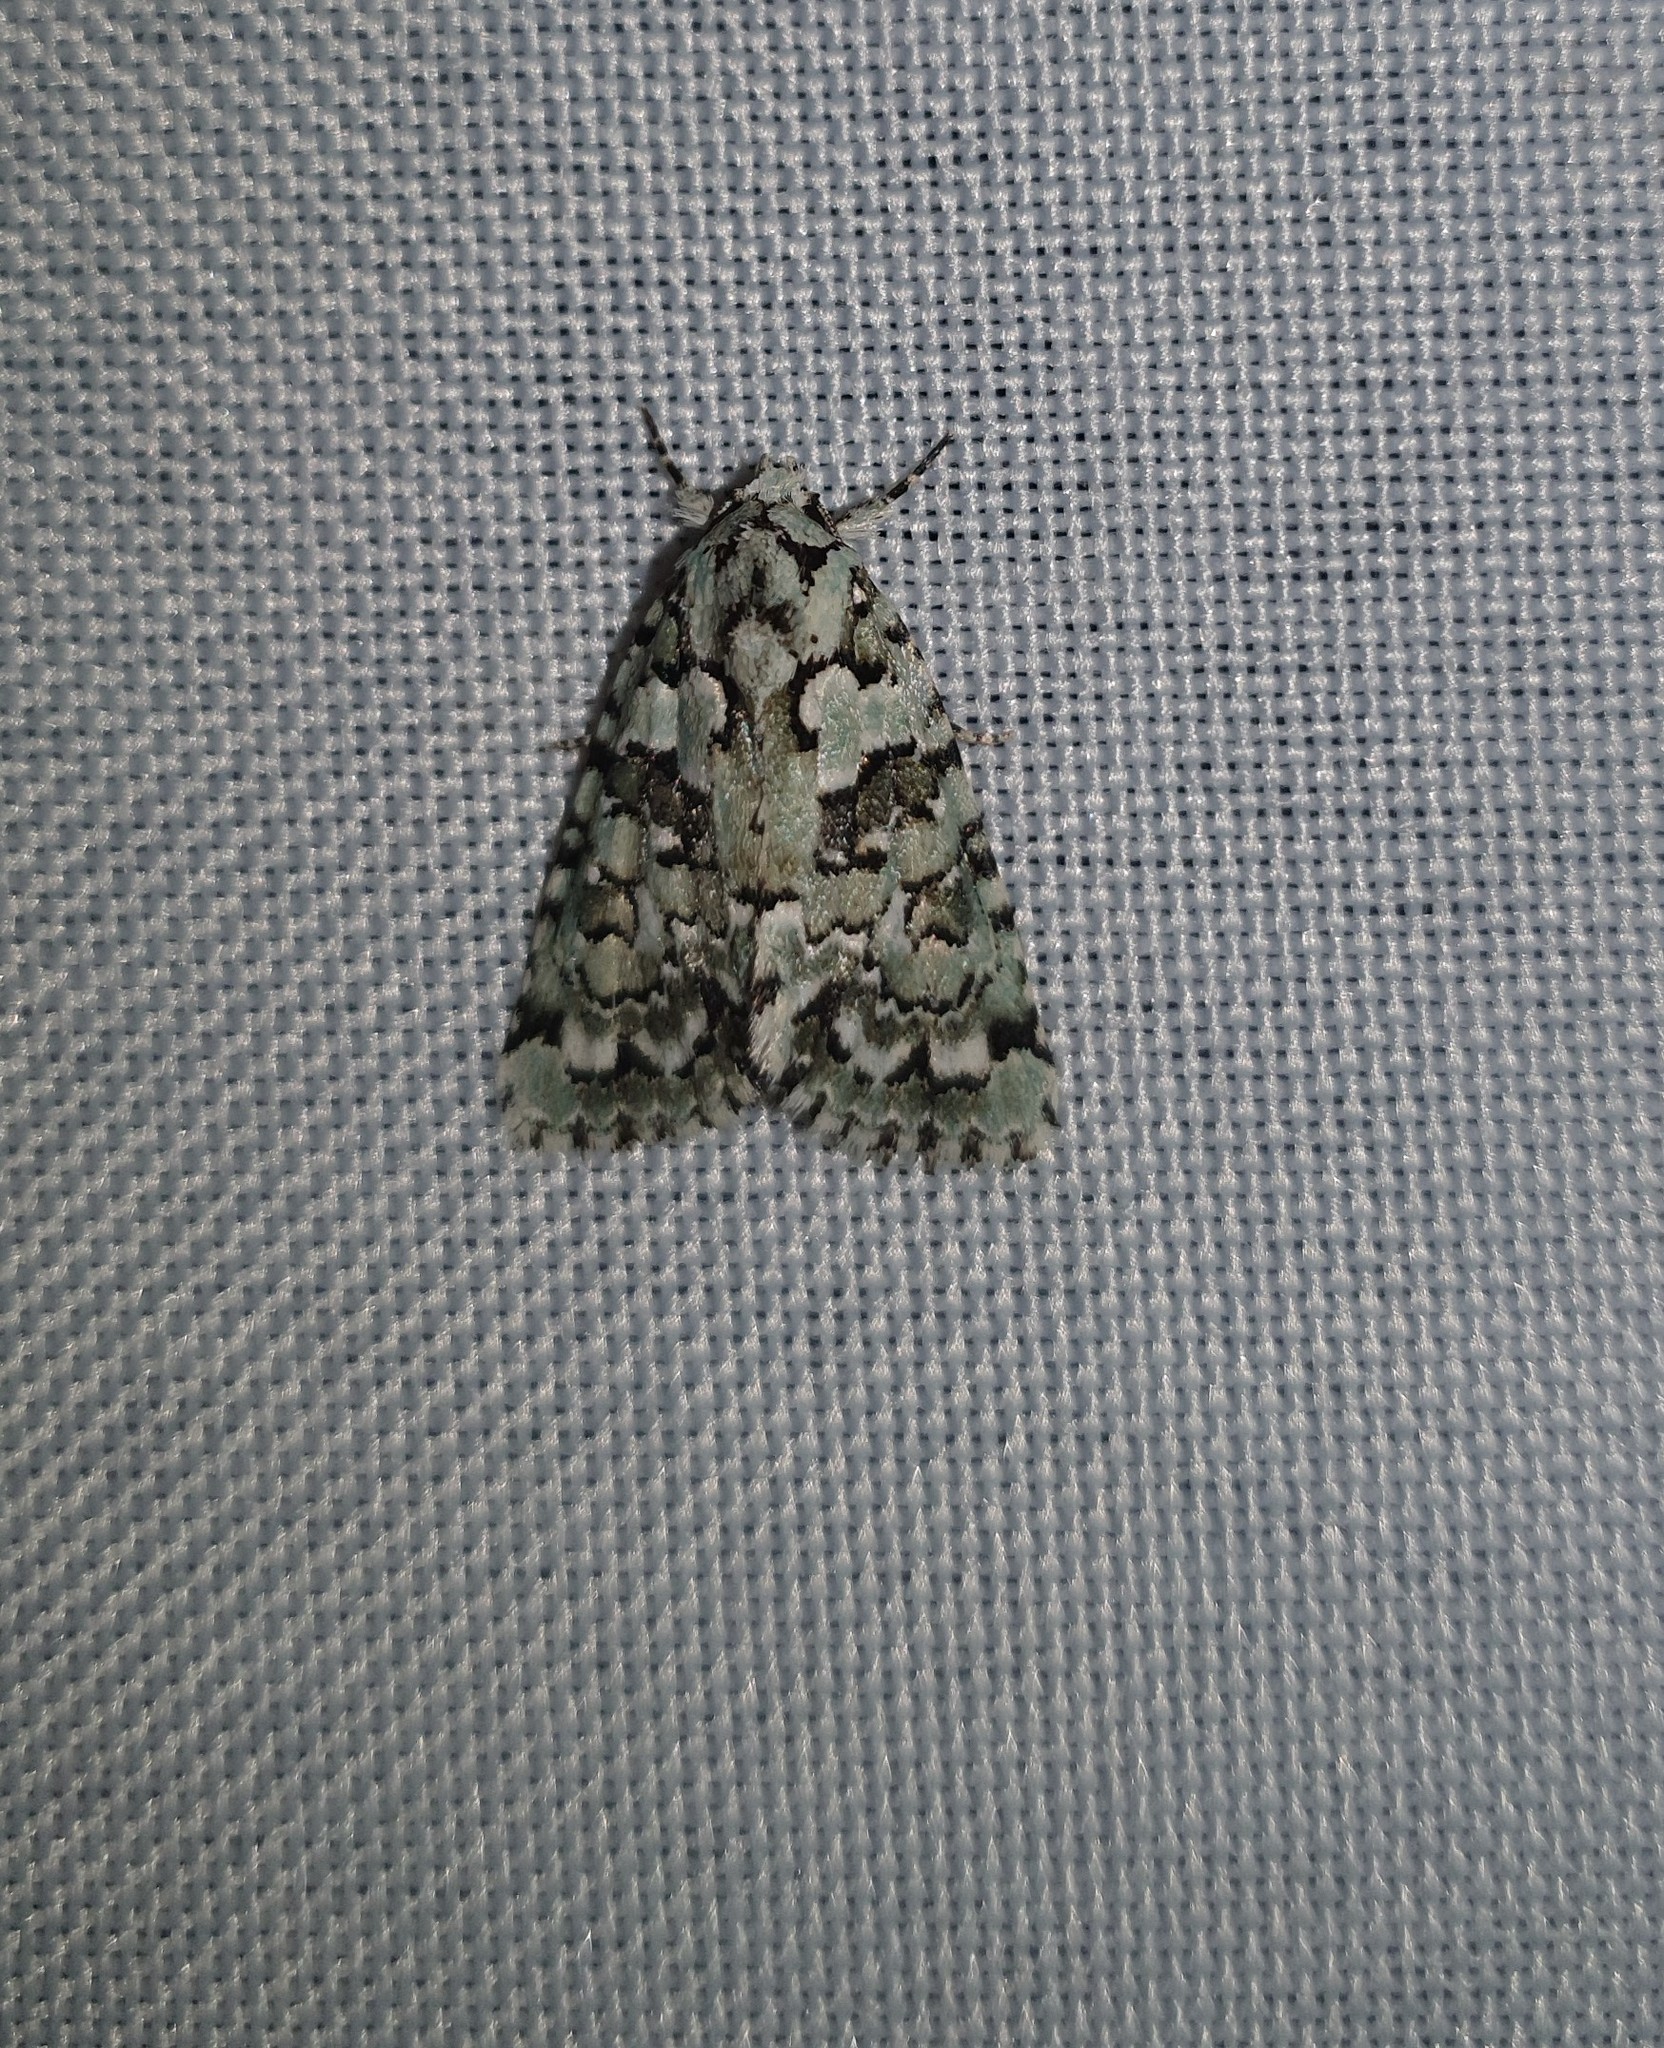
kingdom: Animalia
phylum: Arthropoda
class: Insecta
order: Lepidoptera
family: Noctuidae
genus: Nyctobrya
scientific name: Nyctobrya muralis
